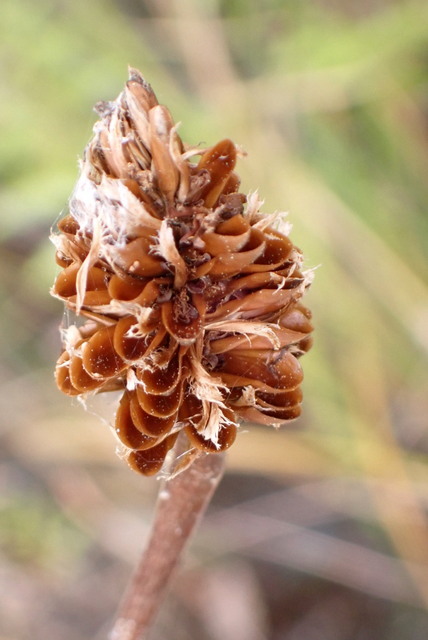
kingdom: Plantae
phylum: Tracheophyta
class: Liliopsida
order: Poales
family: Xyridaceae
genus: Xyris
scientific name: Xyris fimbriata
